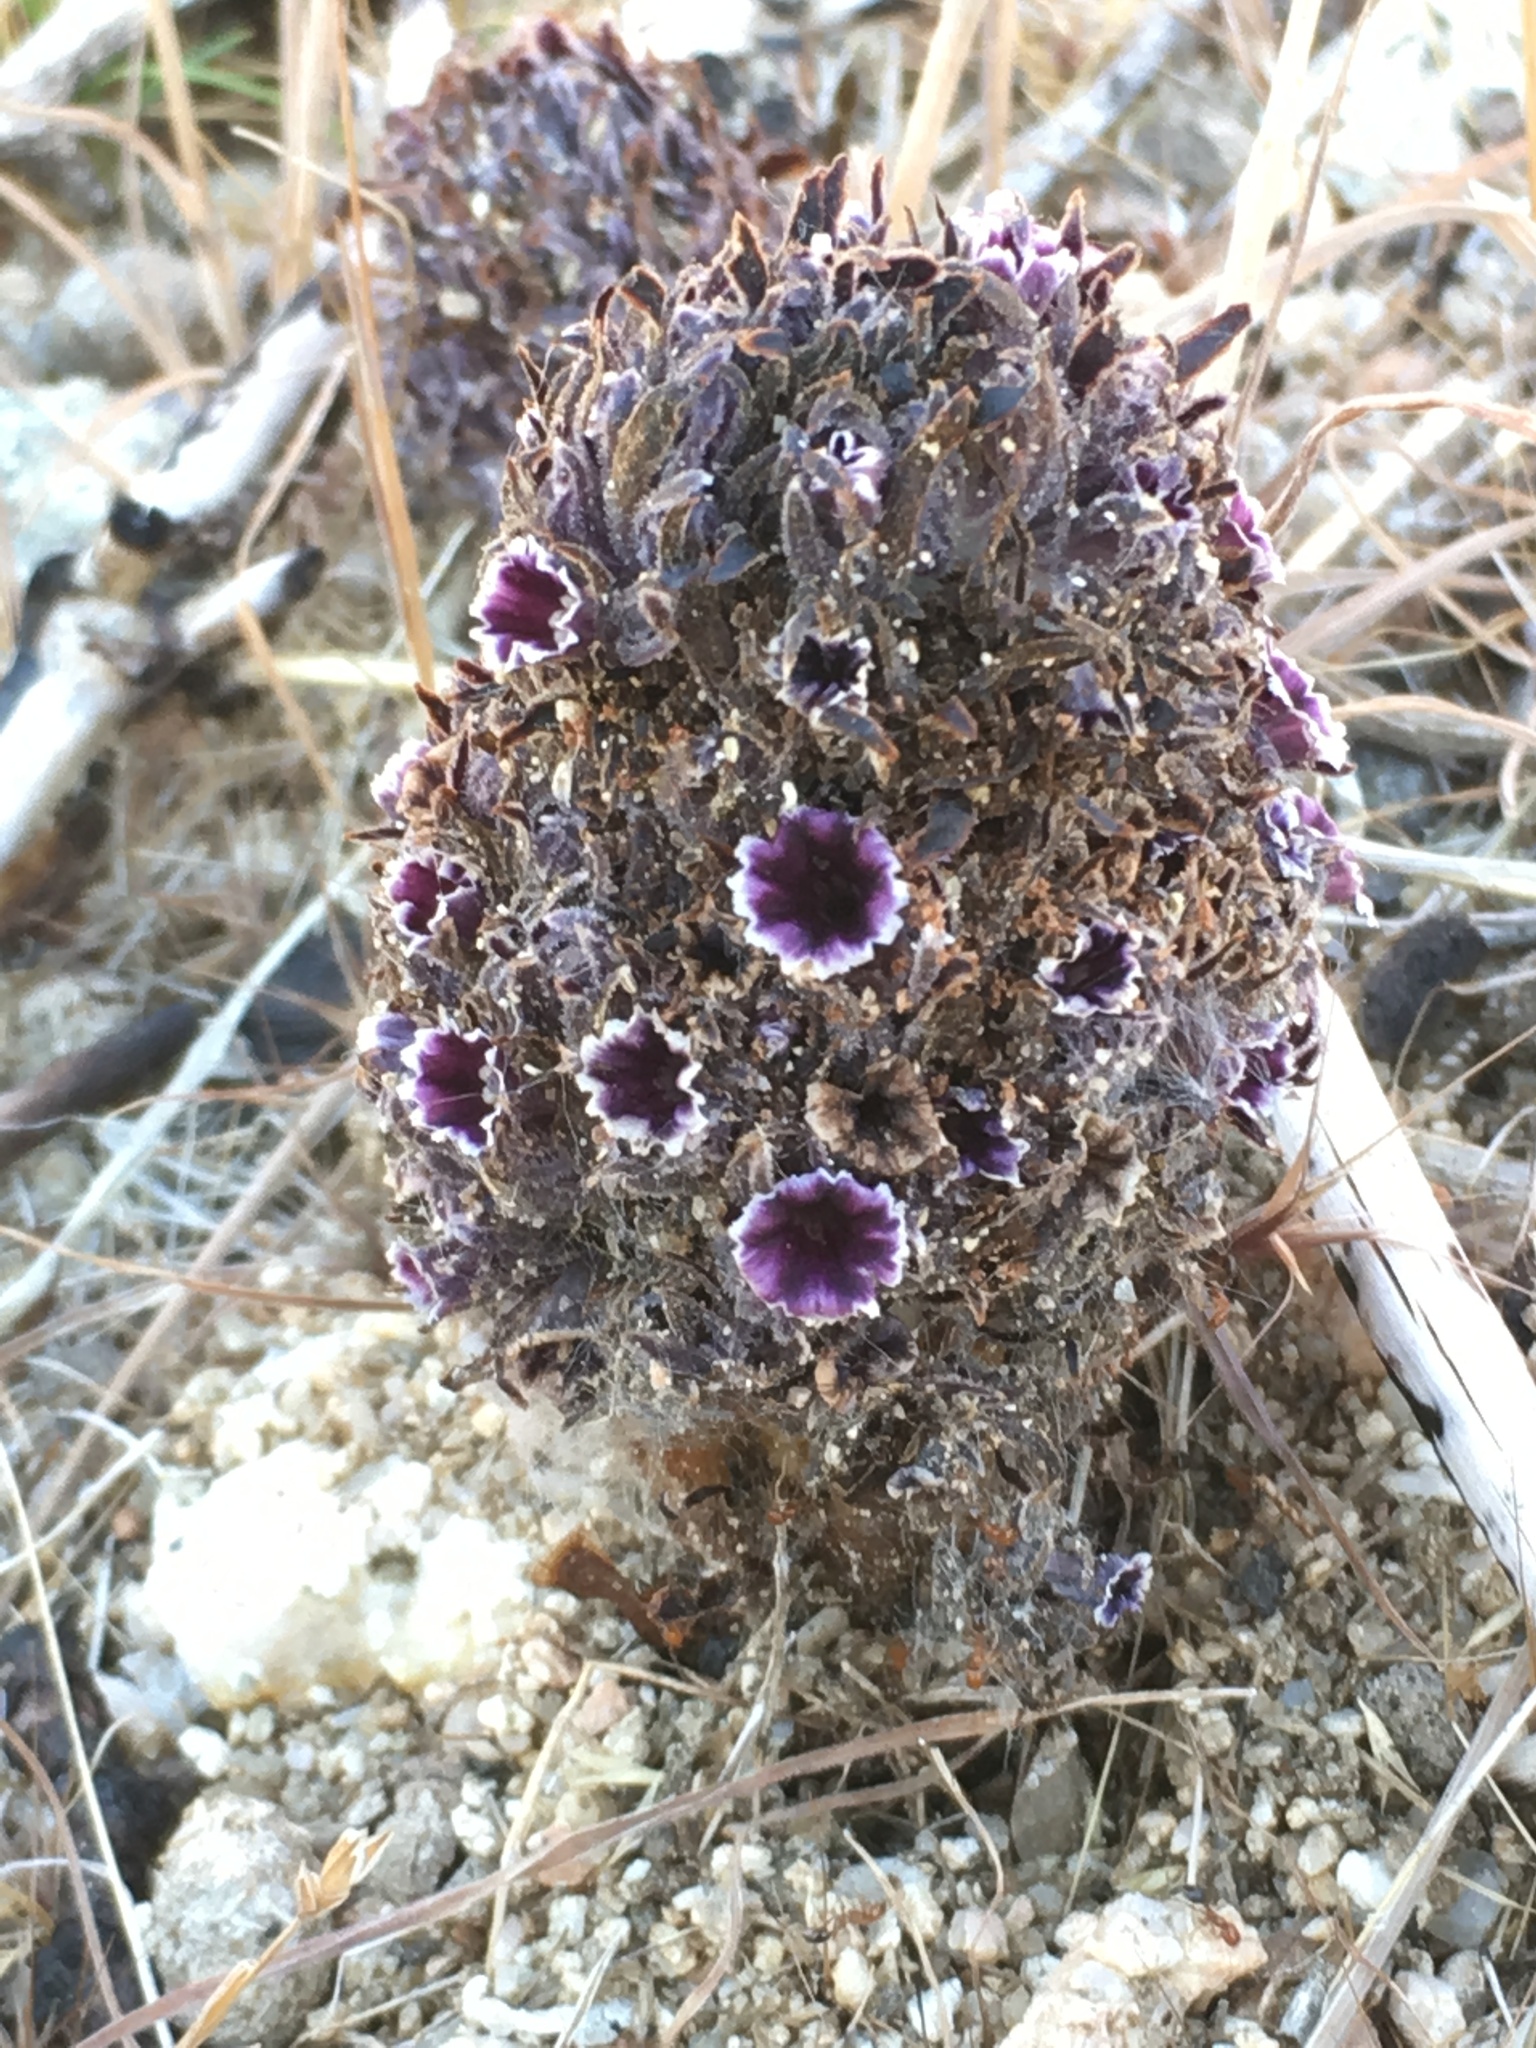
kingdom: Plantae
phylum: Tracheophyta
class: Magnoliopsida
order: Boraginales
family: Lennoaceae
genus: Pholisma
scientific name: Pholisma arenarium
